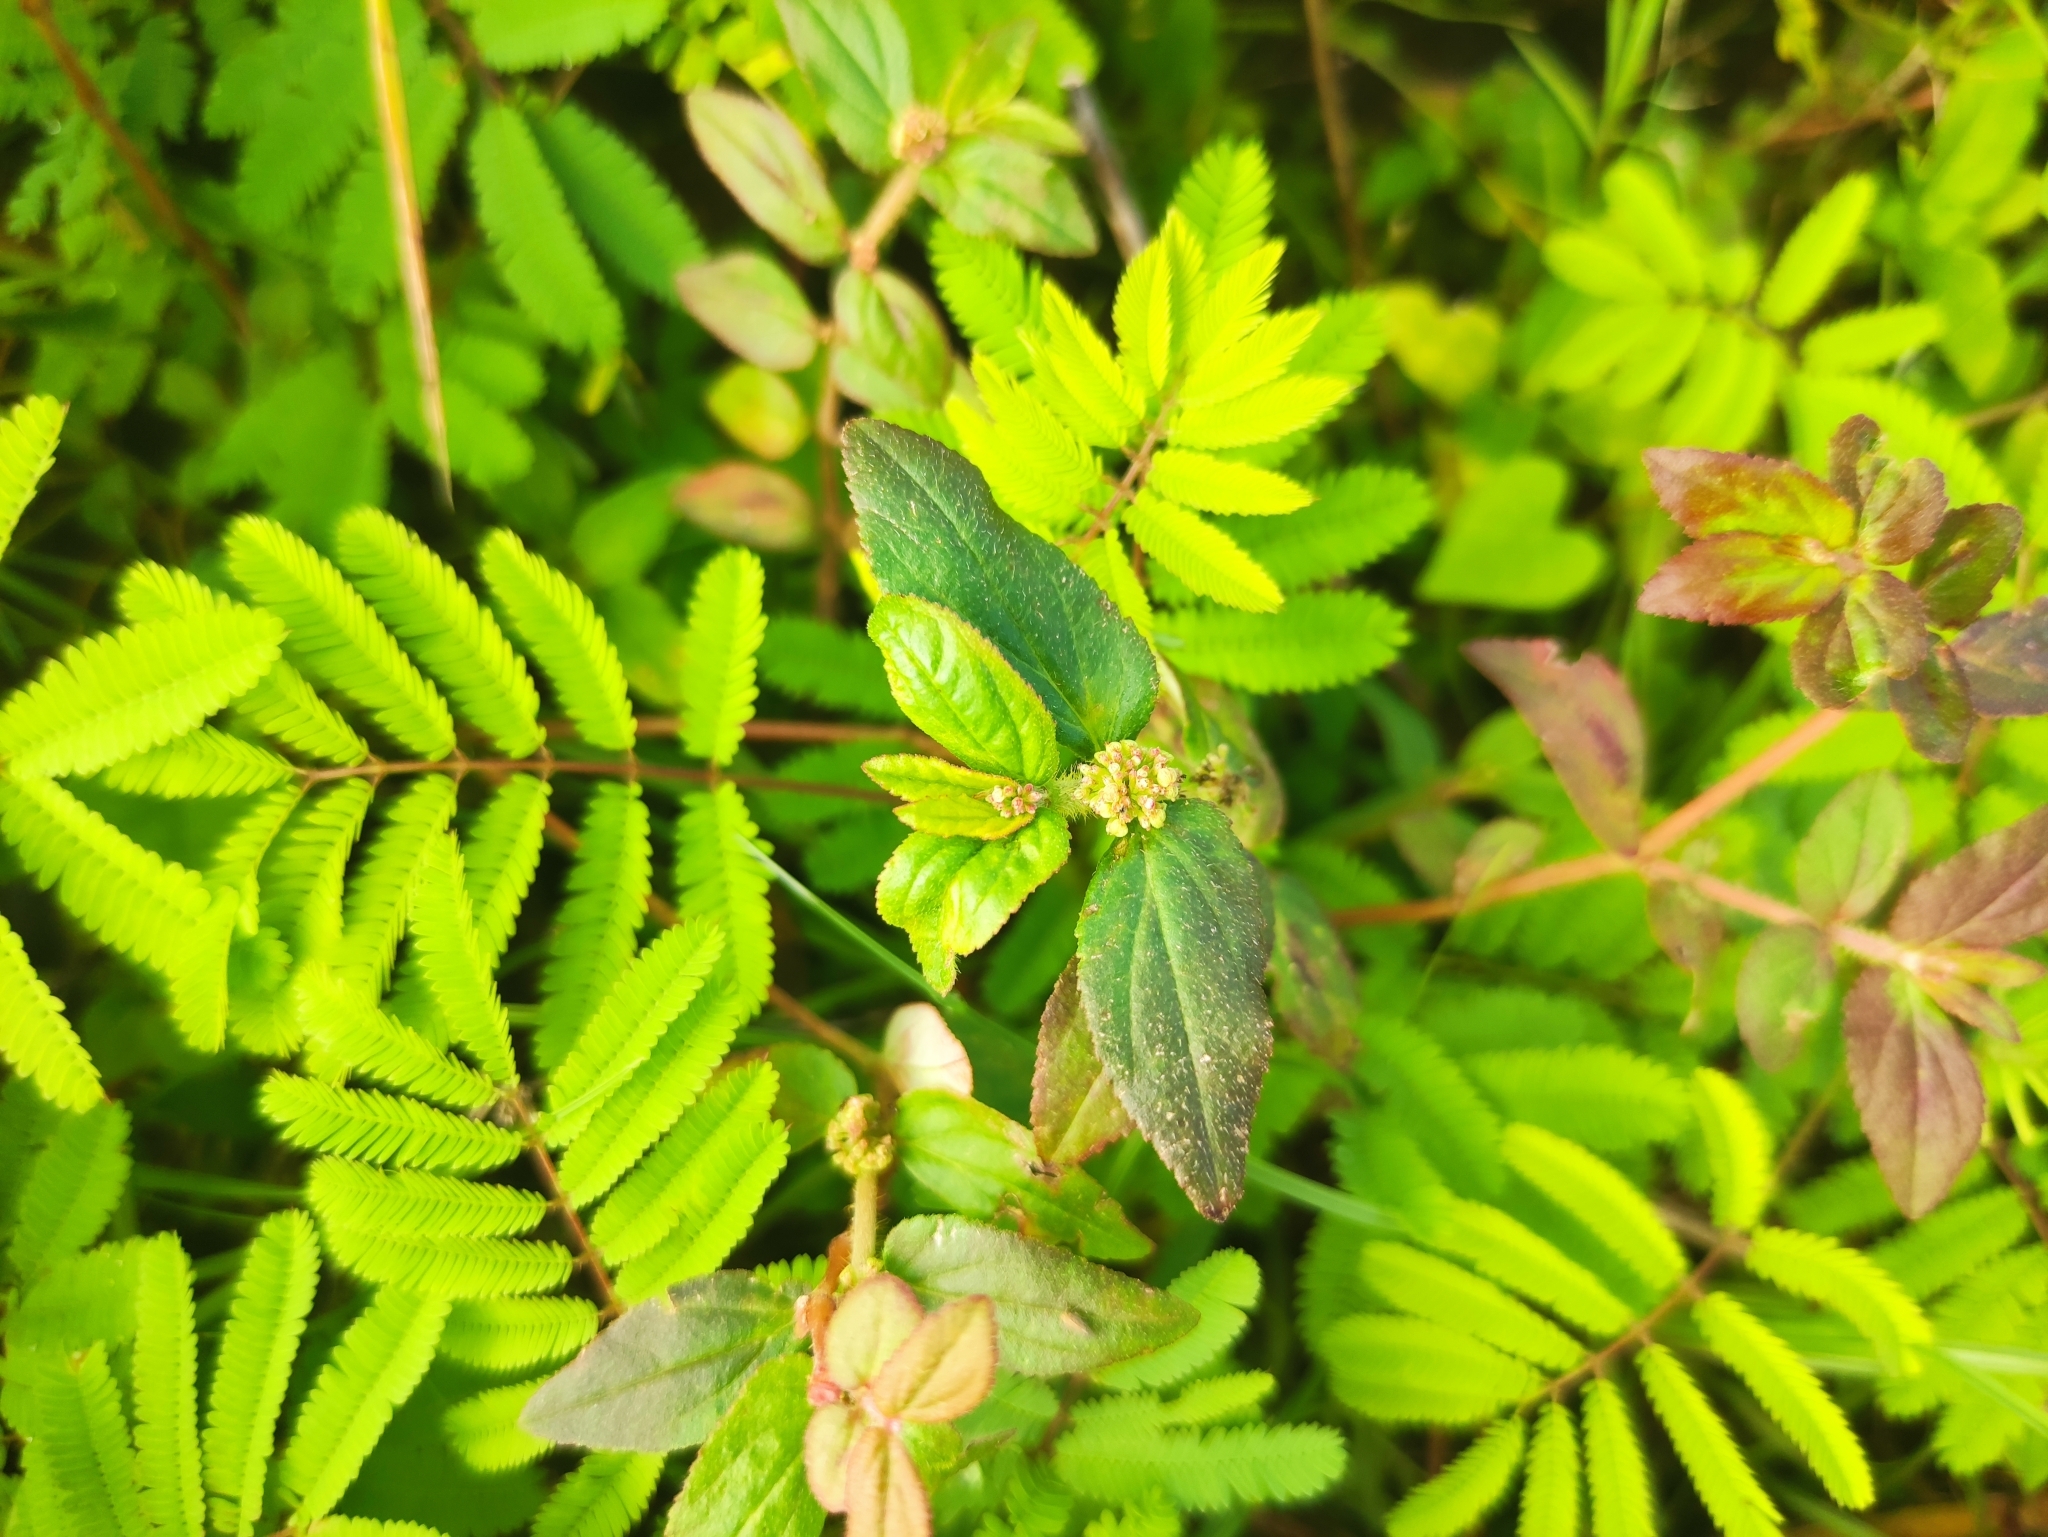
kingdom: Plantae
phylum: Tracheophyta
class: Magnoliopsida
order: Malpighiales
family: Euphorbiaceae
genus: Euphorbia
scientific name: Euphorbia hirta
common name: Pillpod sandmat
